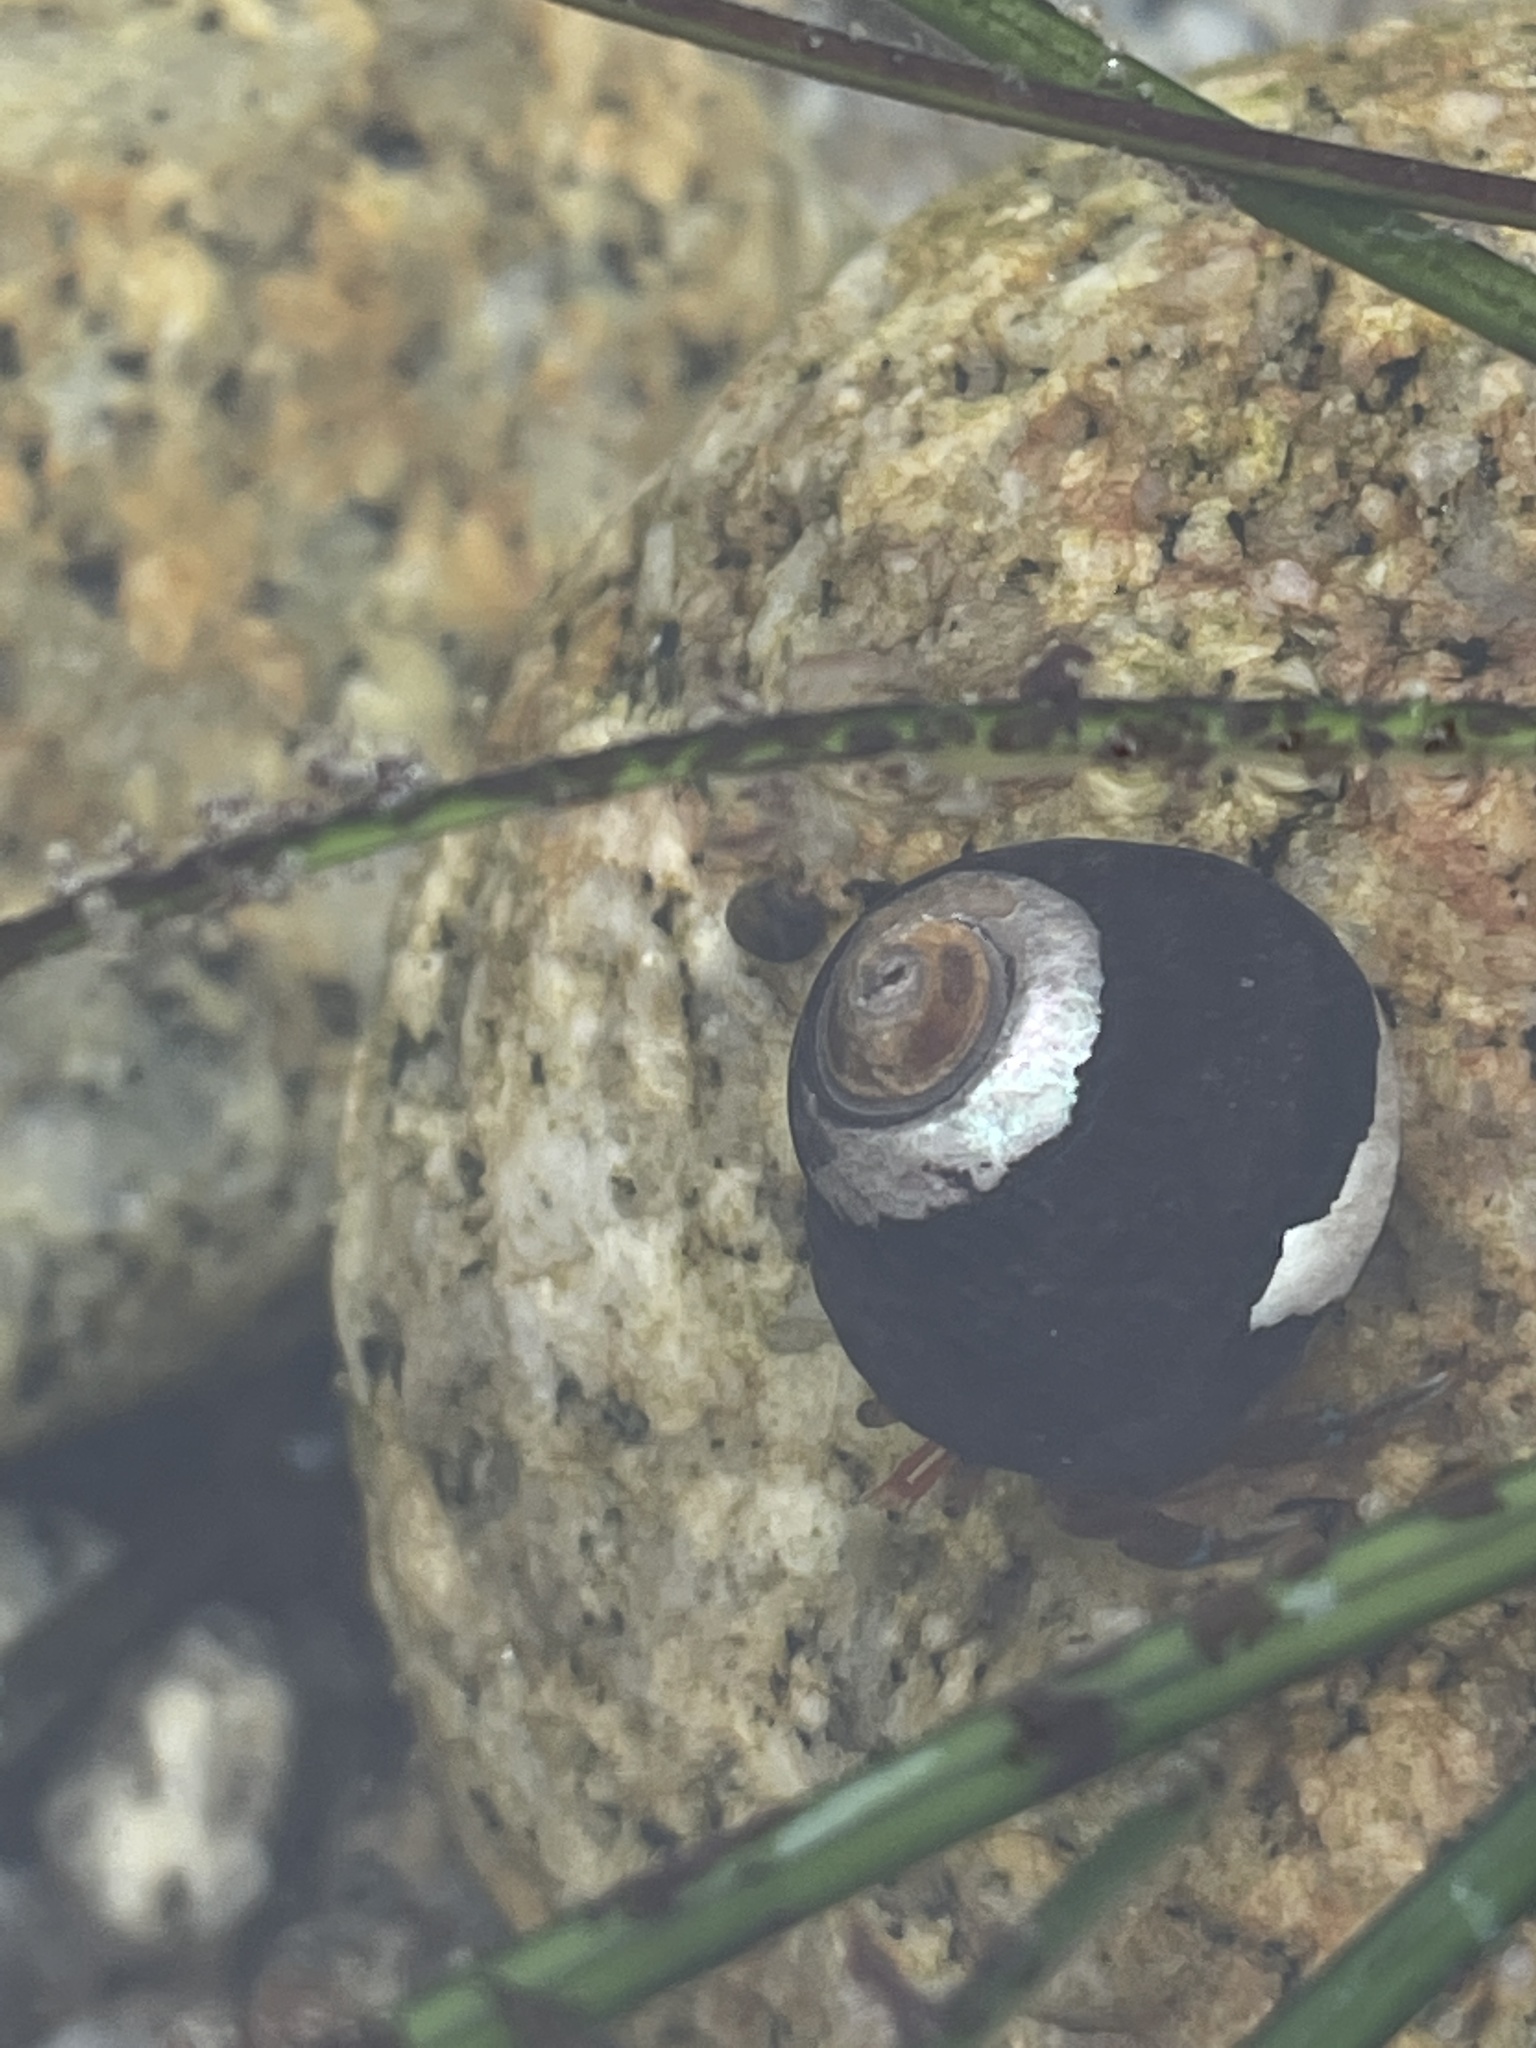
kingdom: Animalia
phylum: Arthropoda
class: Malacostraca
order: Decapoda
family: Paguridae
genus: Pagurus
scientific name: Pagurus samuelis
